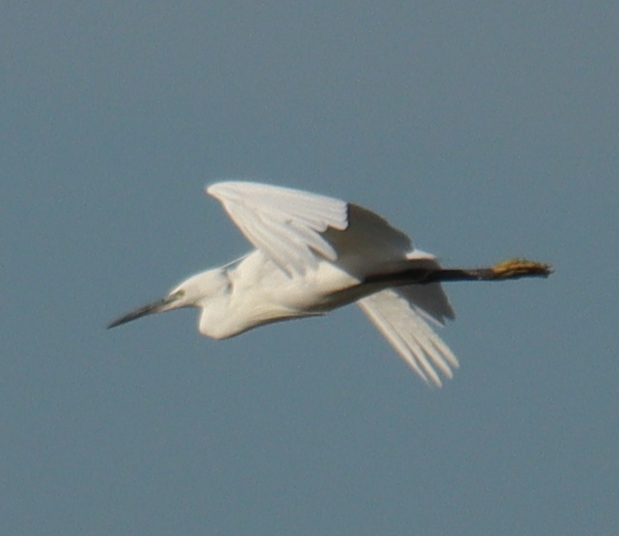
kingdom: Animalia
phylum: Chordata
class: Aves
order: Pelecaniformes
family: Ardeidae
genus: Egretta
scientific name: Egretta garzetta
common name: Little egret
